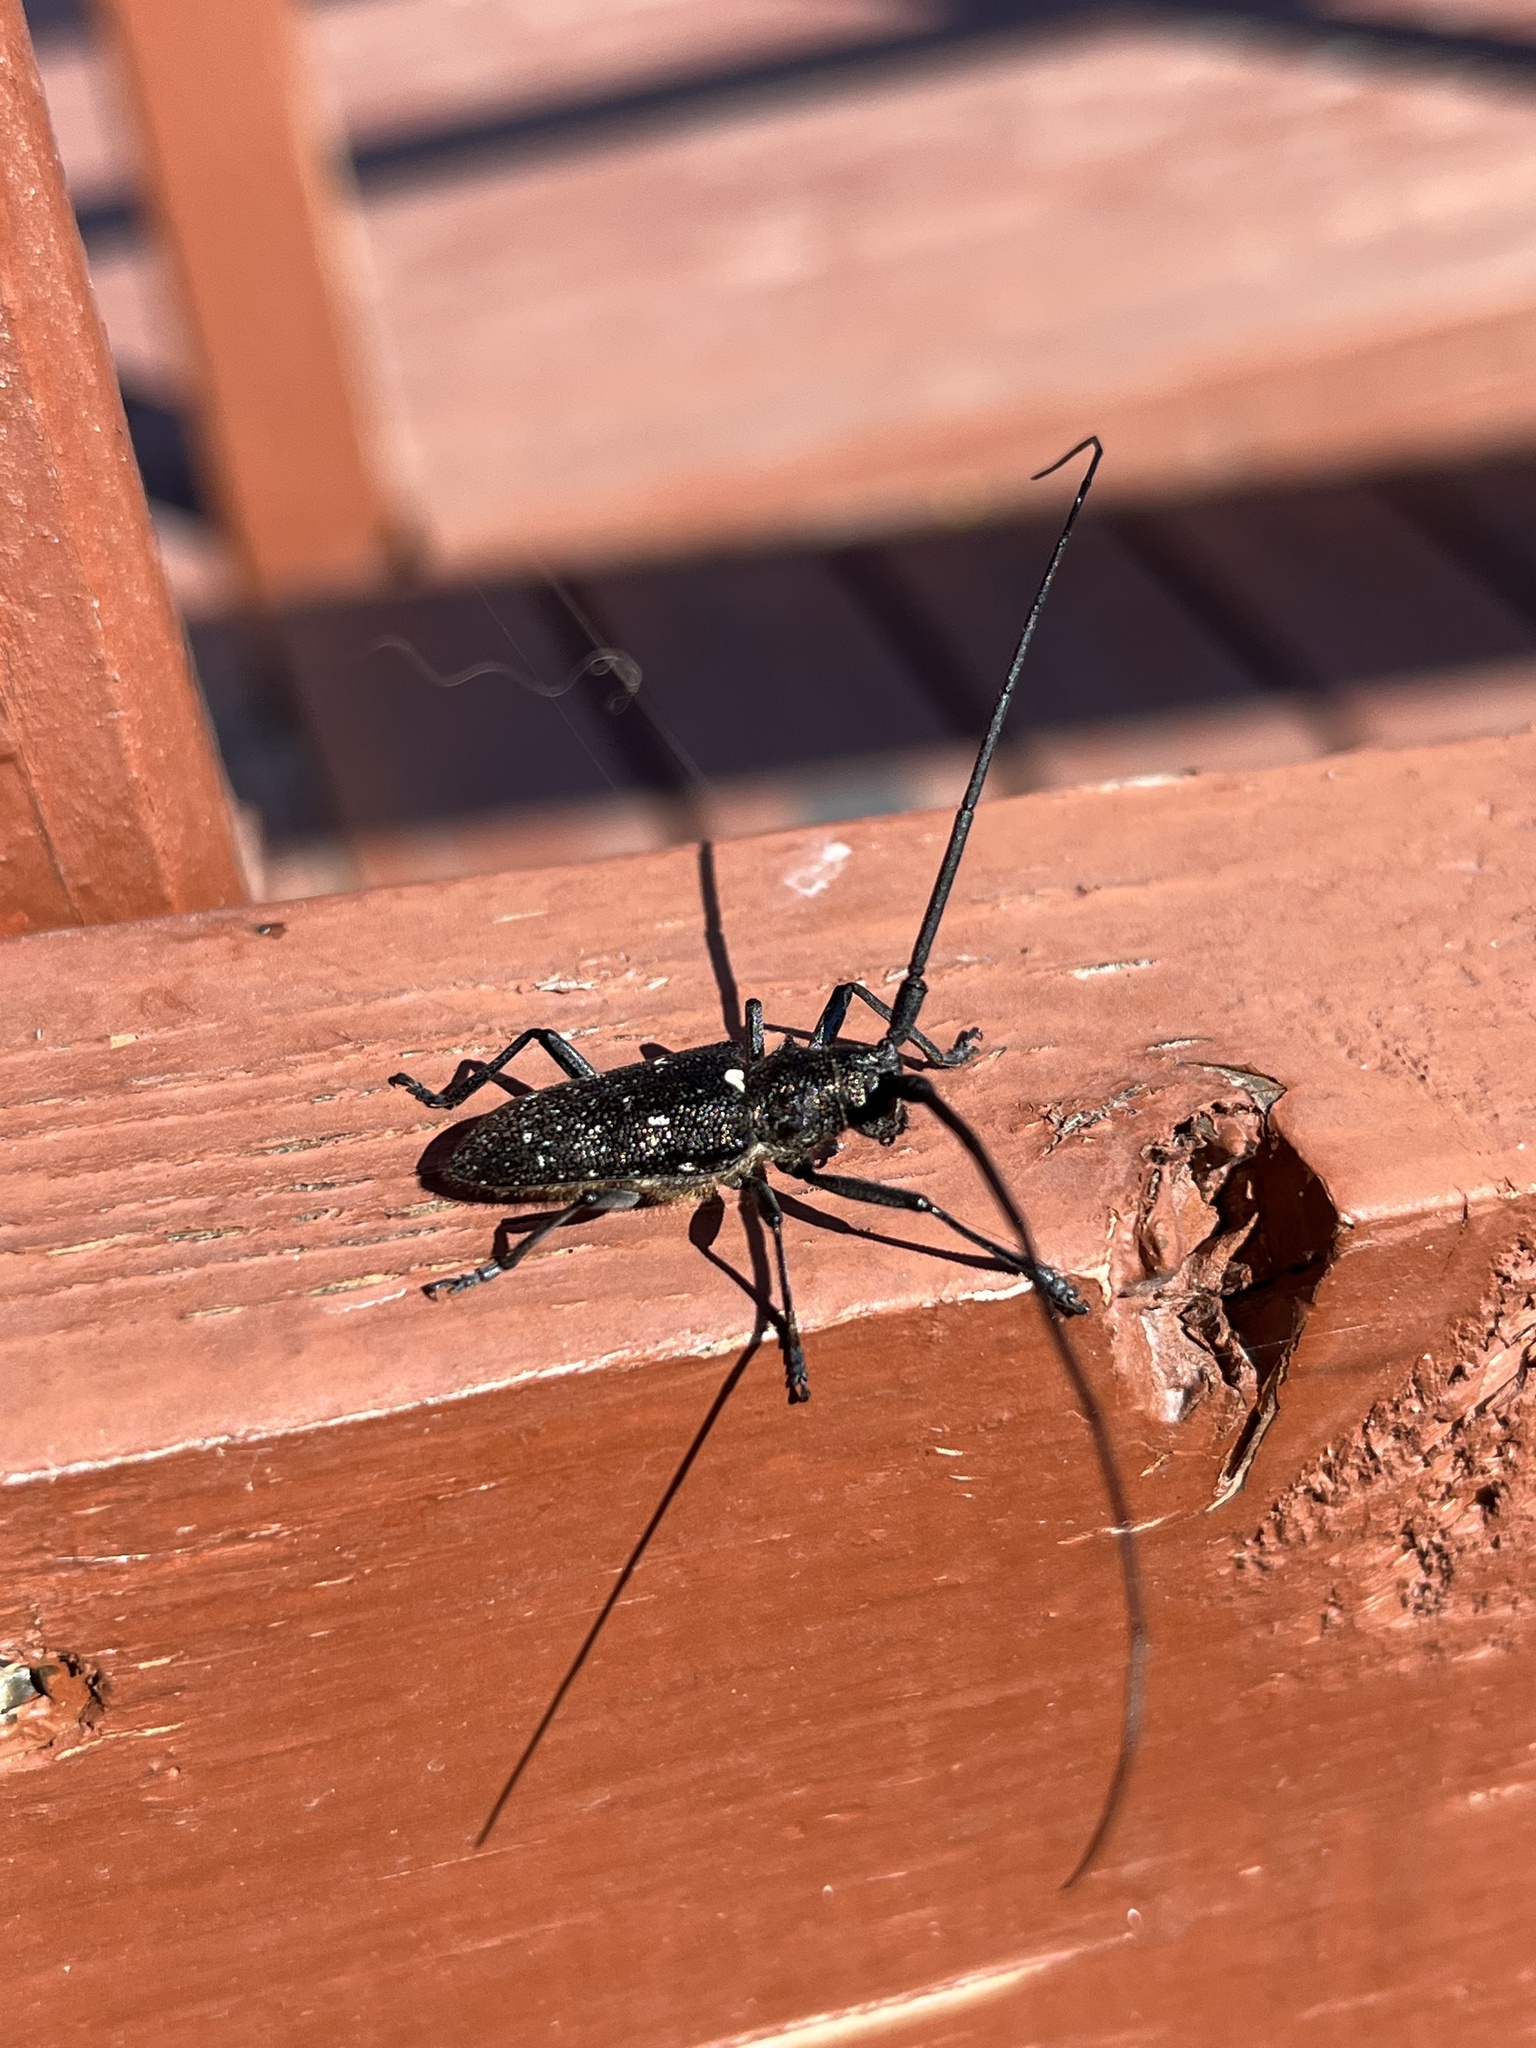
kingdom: Animalia
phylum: Arthropoda
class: Insecta
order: Coleoptera
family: Cerambycidae
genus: Monochamus
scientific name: Monochamus scutellatus
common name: White-spotted sawyer beetle
